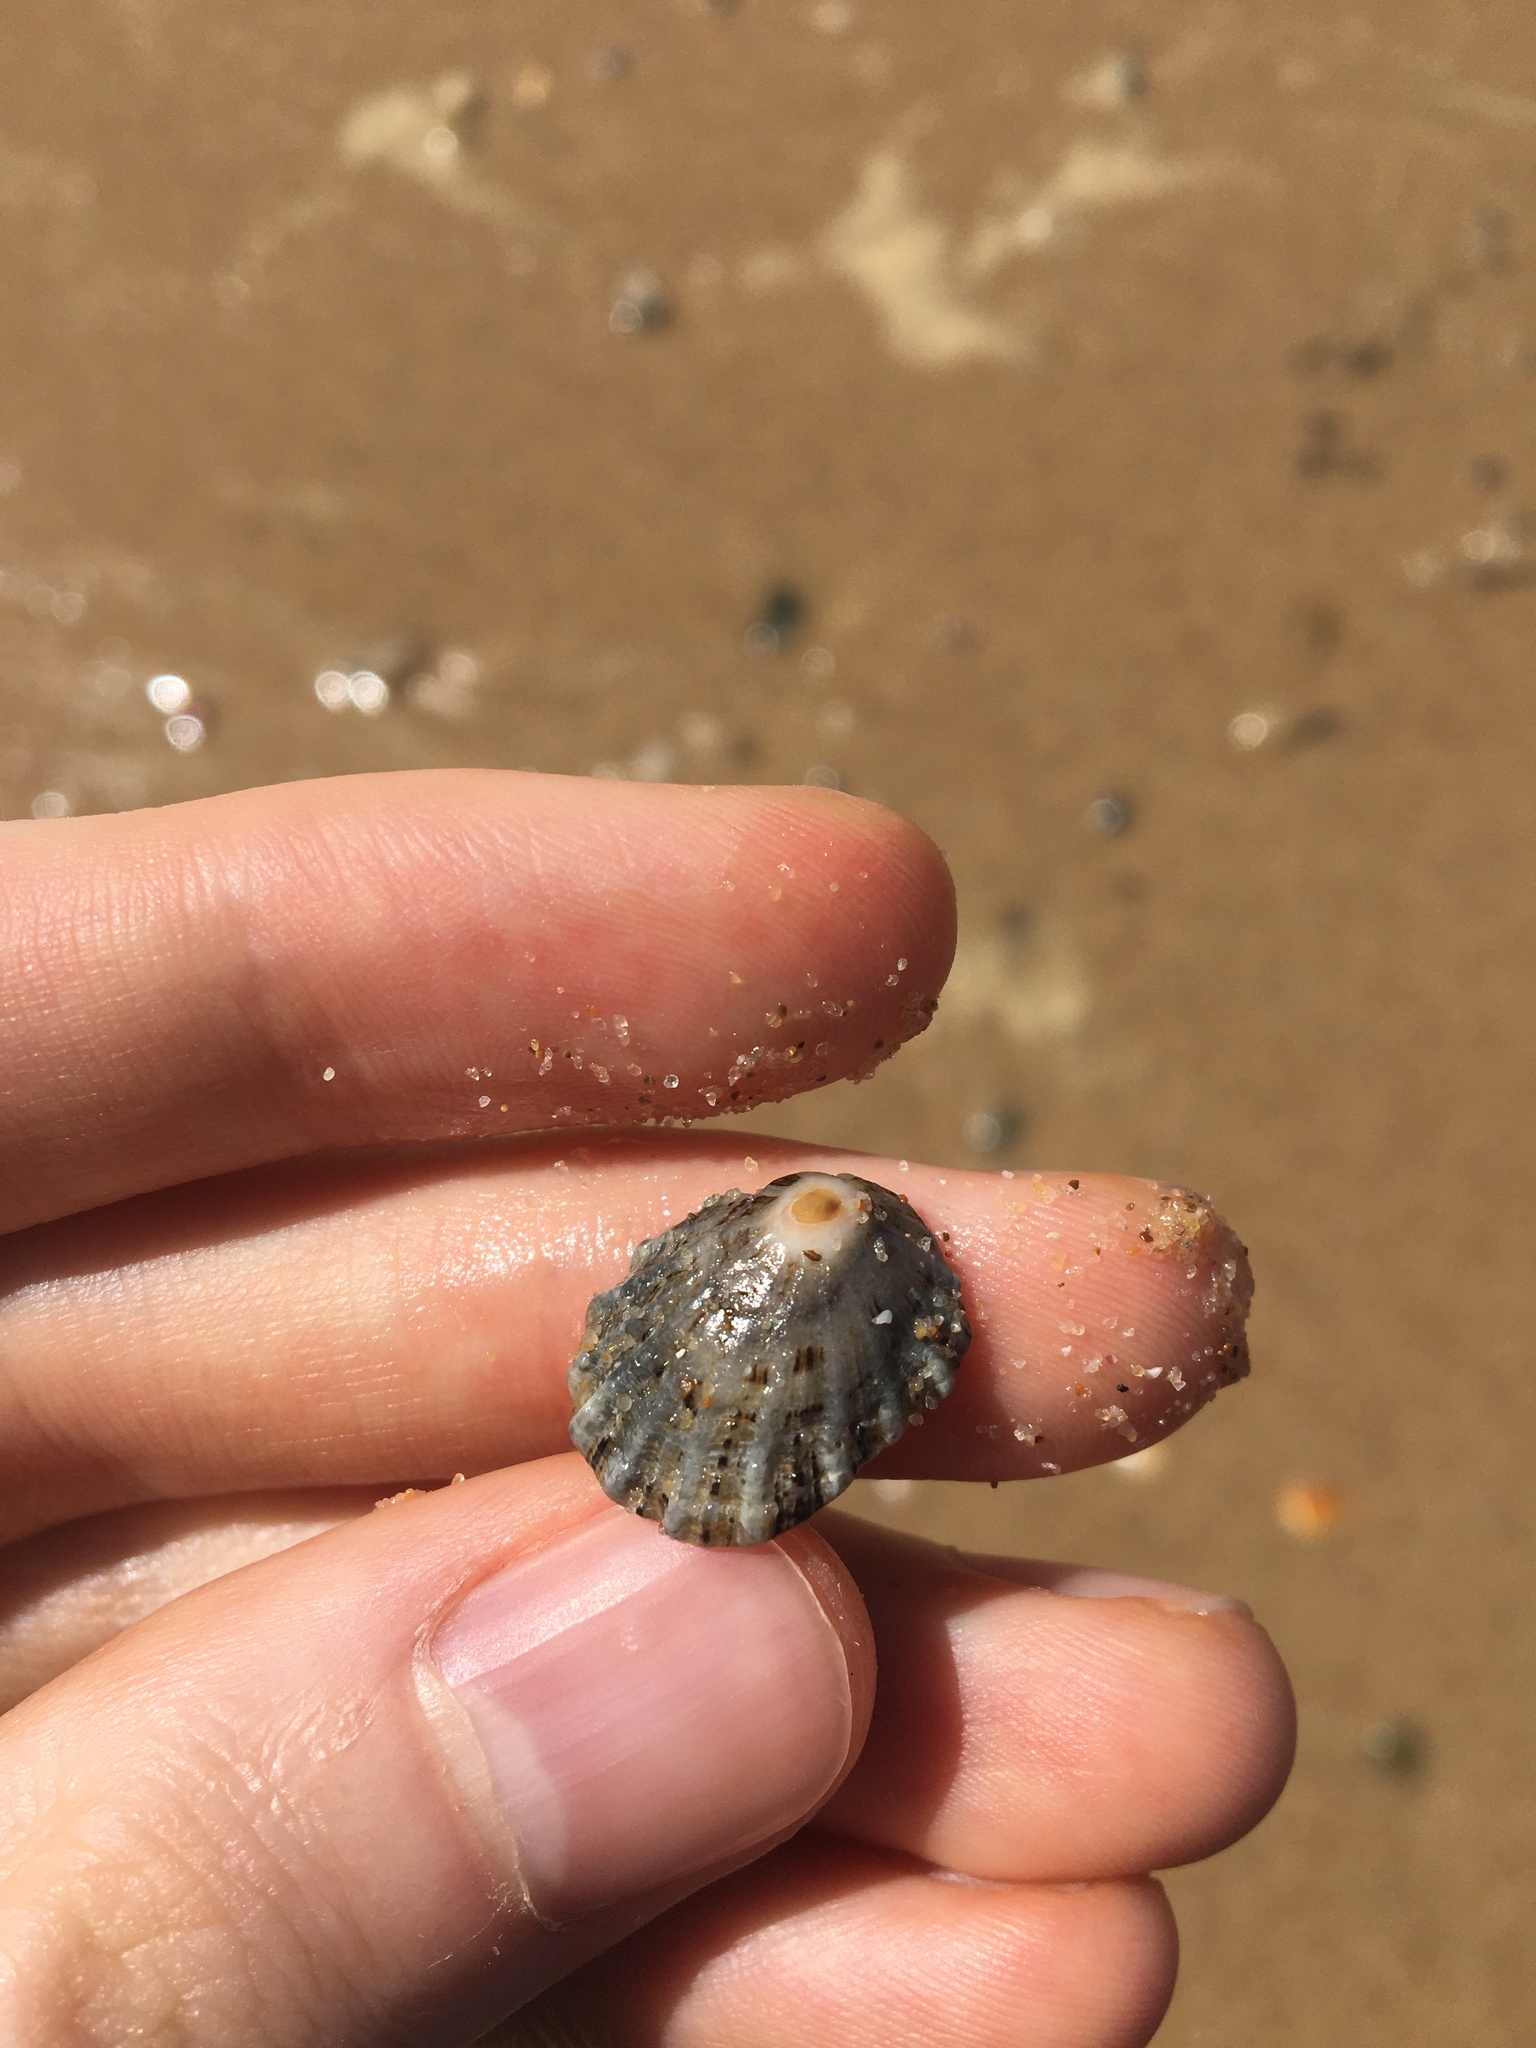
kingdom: Animalia
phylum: Mollusca
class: Gastropoda
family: Patellidae
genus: Scutellastra
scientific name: Scutellastra peronii
